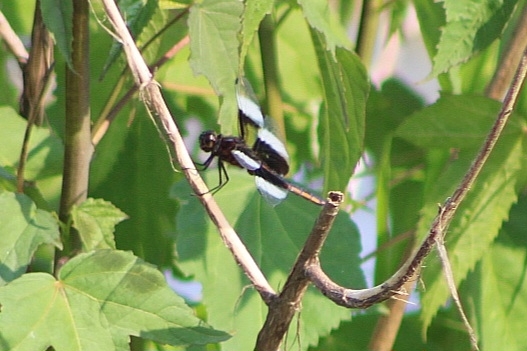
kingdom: Animalia
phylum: Arthropoda
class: Insecta
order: Odonata
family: Libellulidae
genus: Libellula
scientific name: Libellula luctuosa
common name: Widow skimmer
